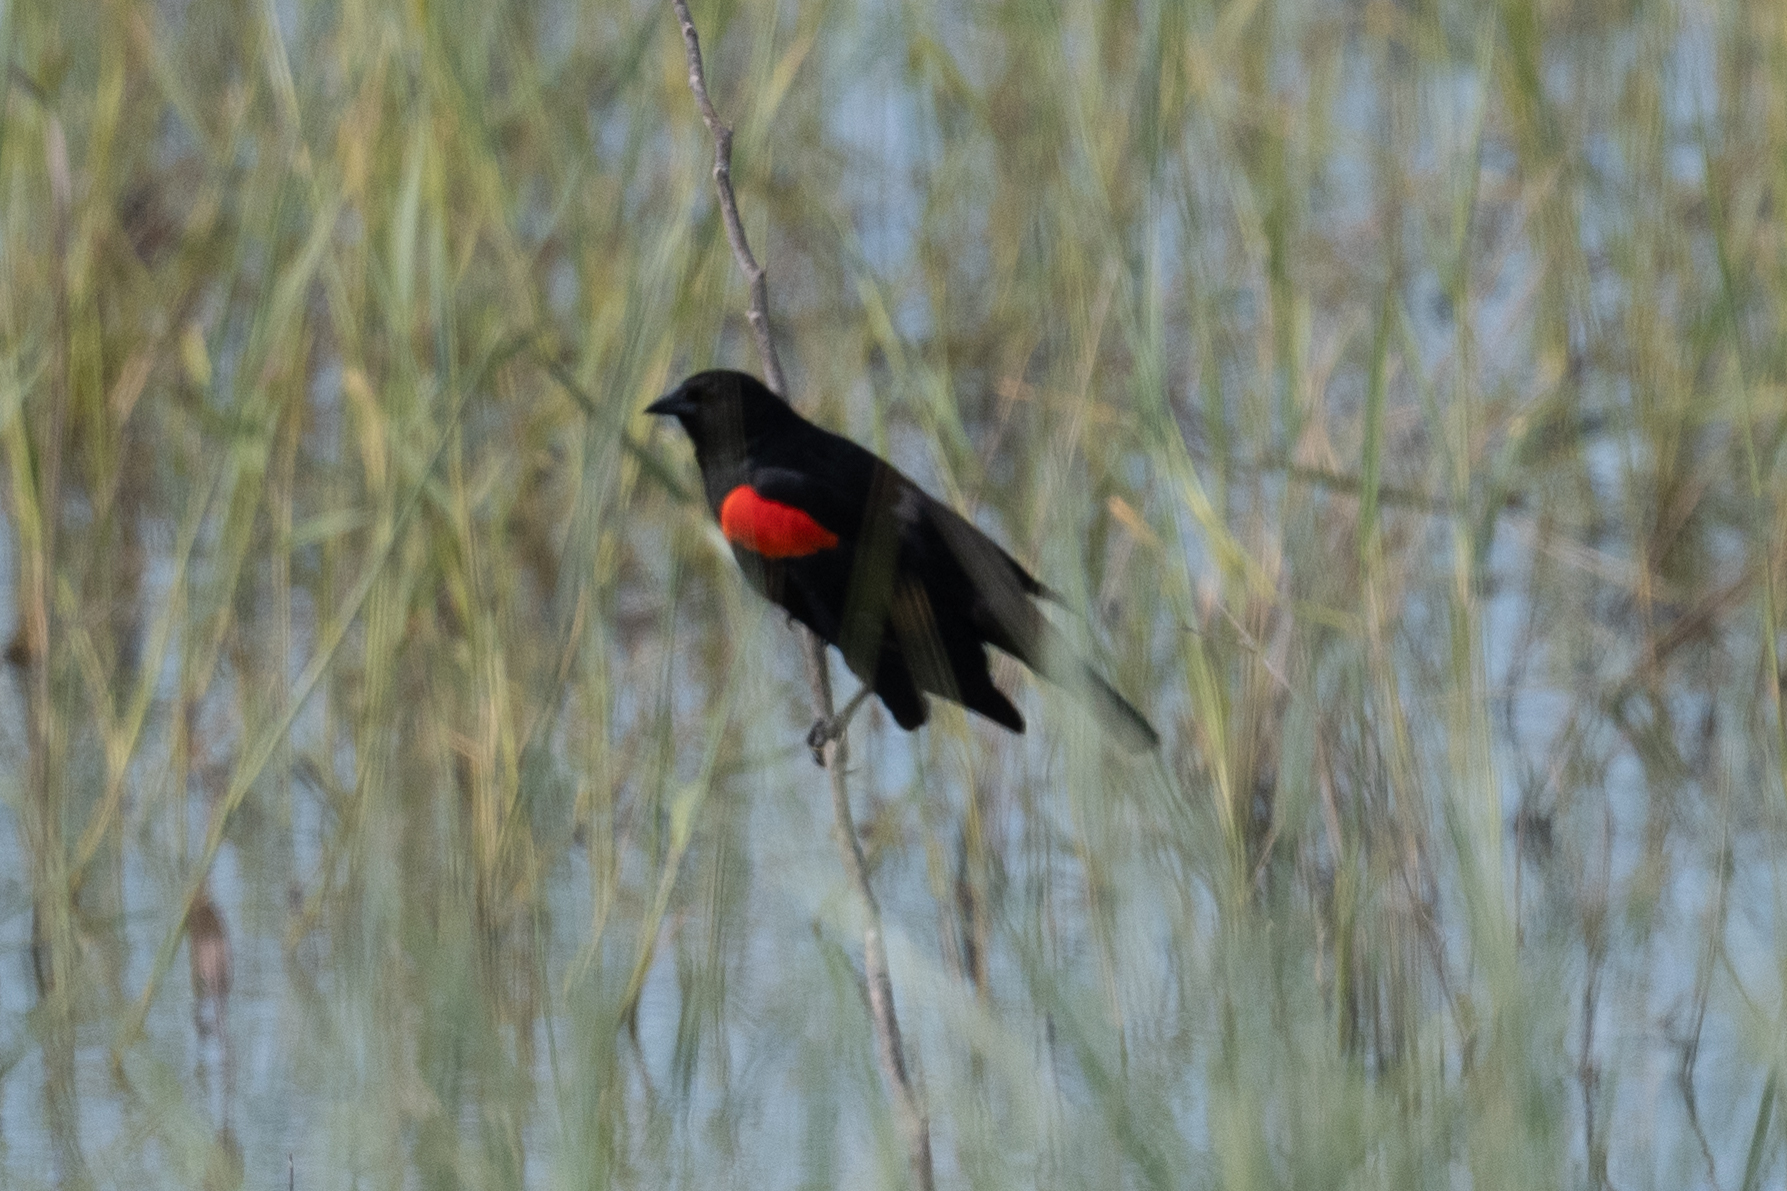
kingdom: Animalia
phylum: Chordata
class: Aves
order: Passeriformes
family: Icteridae
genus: Agelaius
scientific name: Agelaius phoeniceus
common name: Red-winged blackbird
